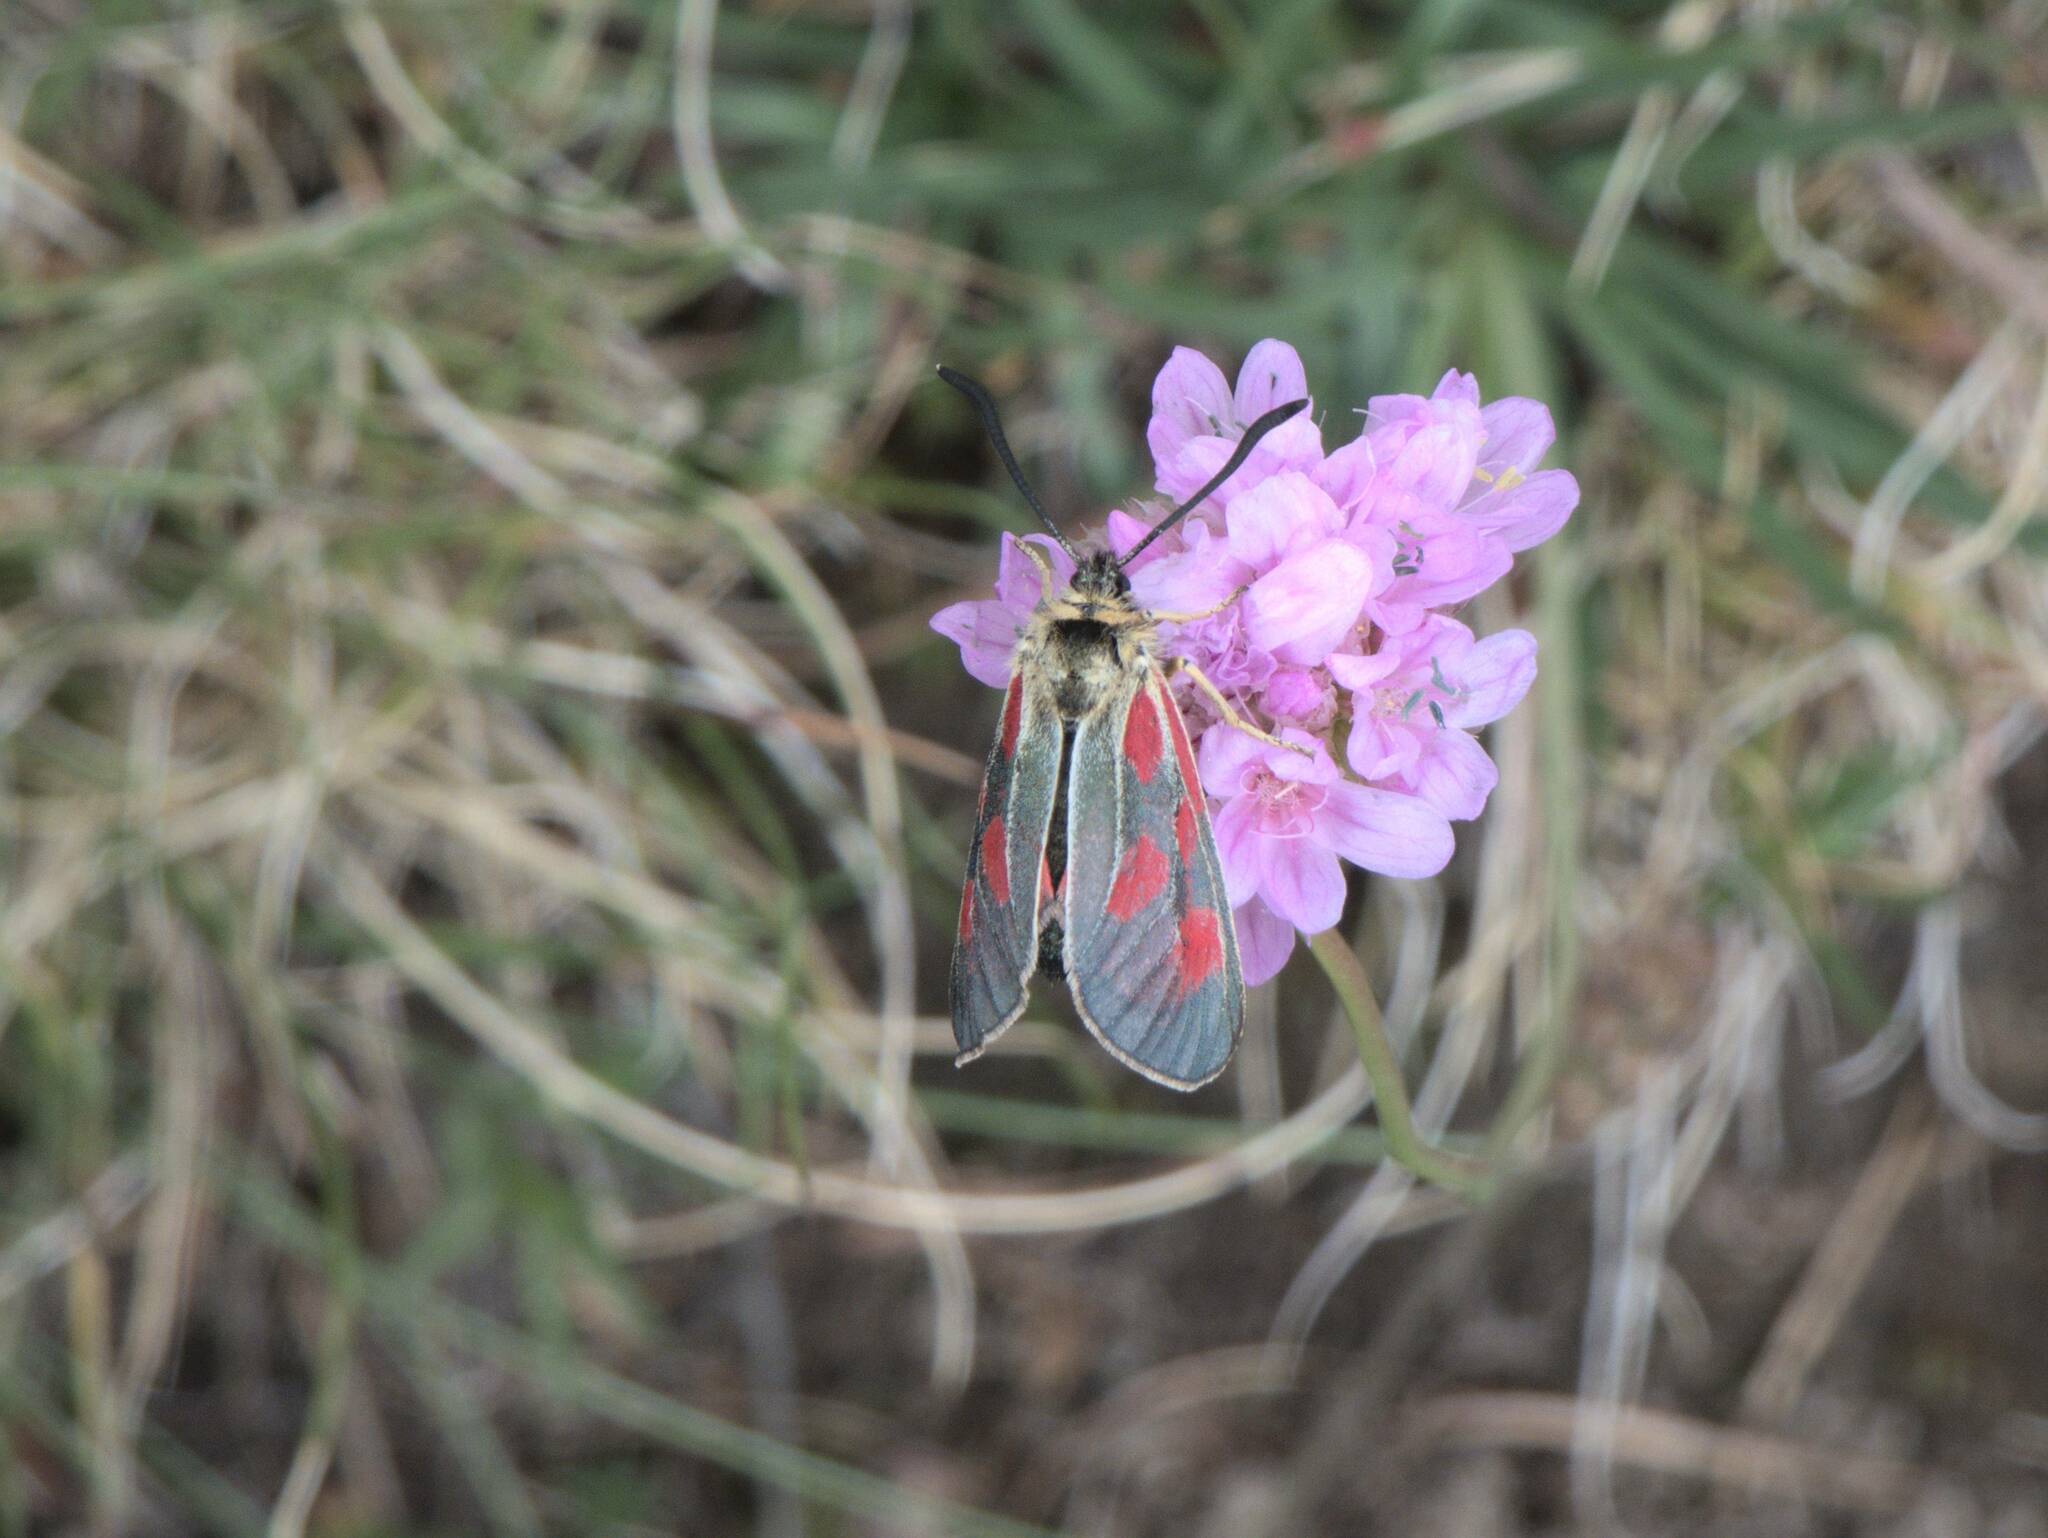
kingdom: Animalia
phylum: Arthropoda
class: Insecta
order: Lepidoptera
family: Zygaenidae
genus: Zygaena
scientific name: Zygaena exulans
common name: Scotch burnet
